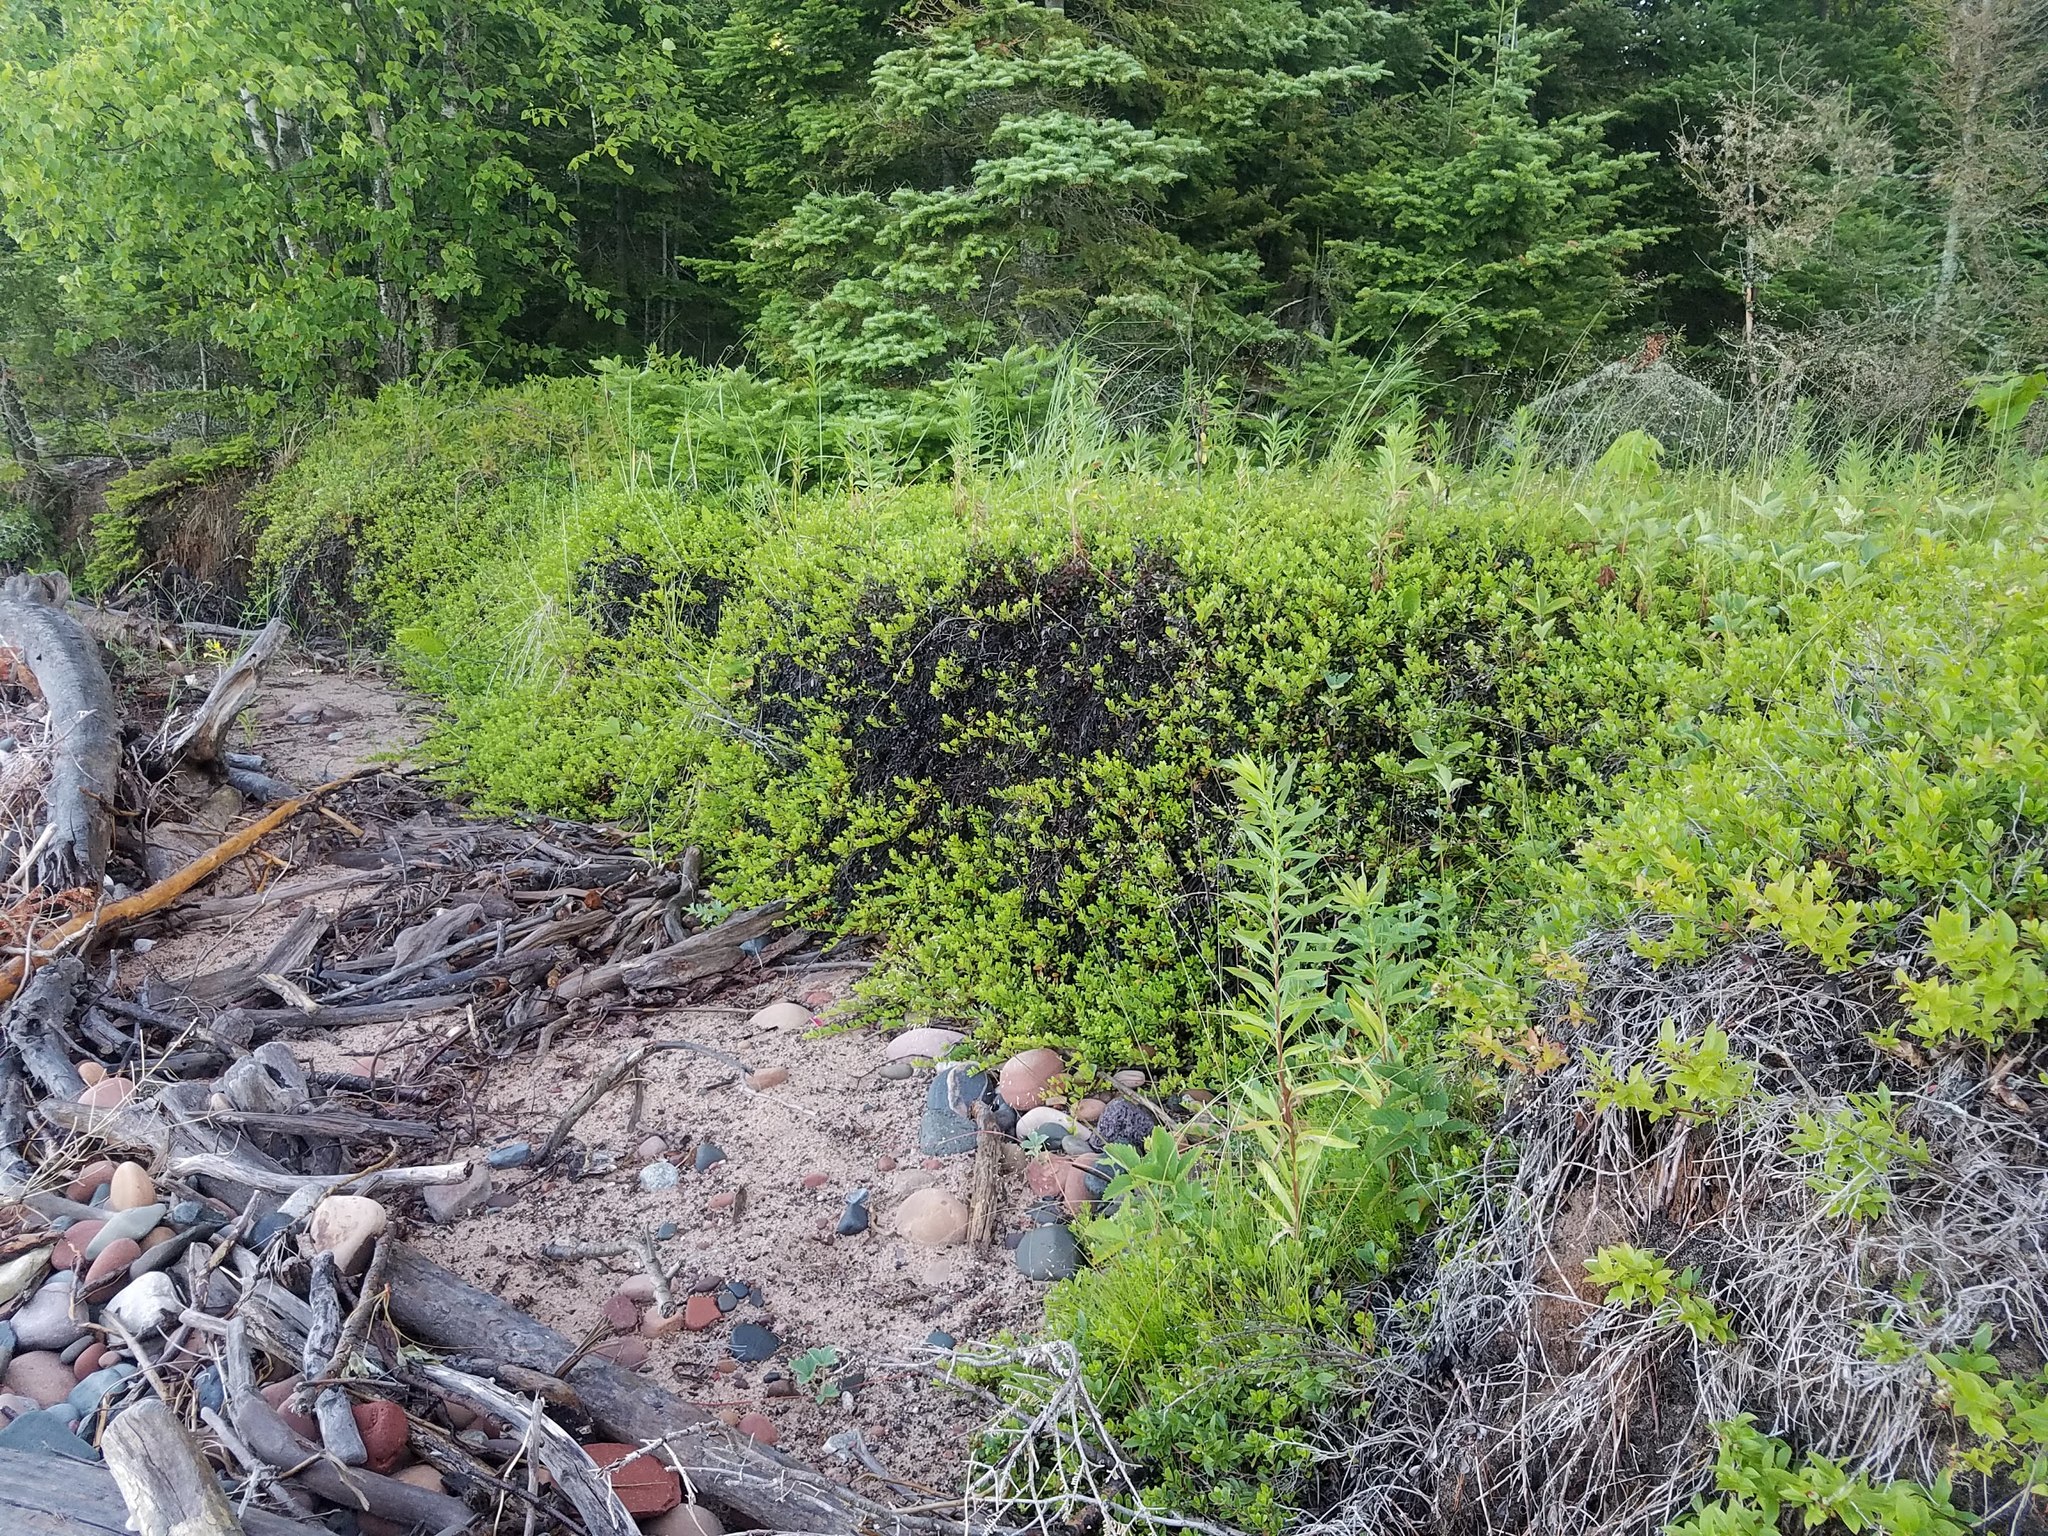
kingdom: Plantae
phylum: Tracheophyta
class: Magnoliopsida
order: Ericales
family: Ericaceae
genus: Arctostaphylos
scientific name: Arctostaphylos uva-ursi
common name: Bearberry
